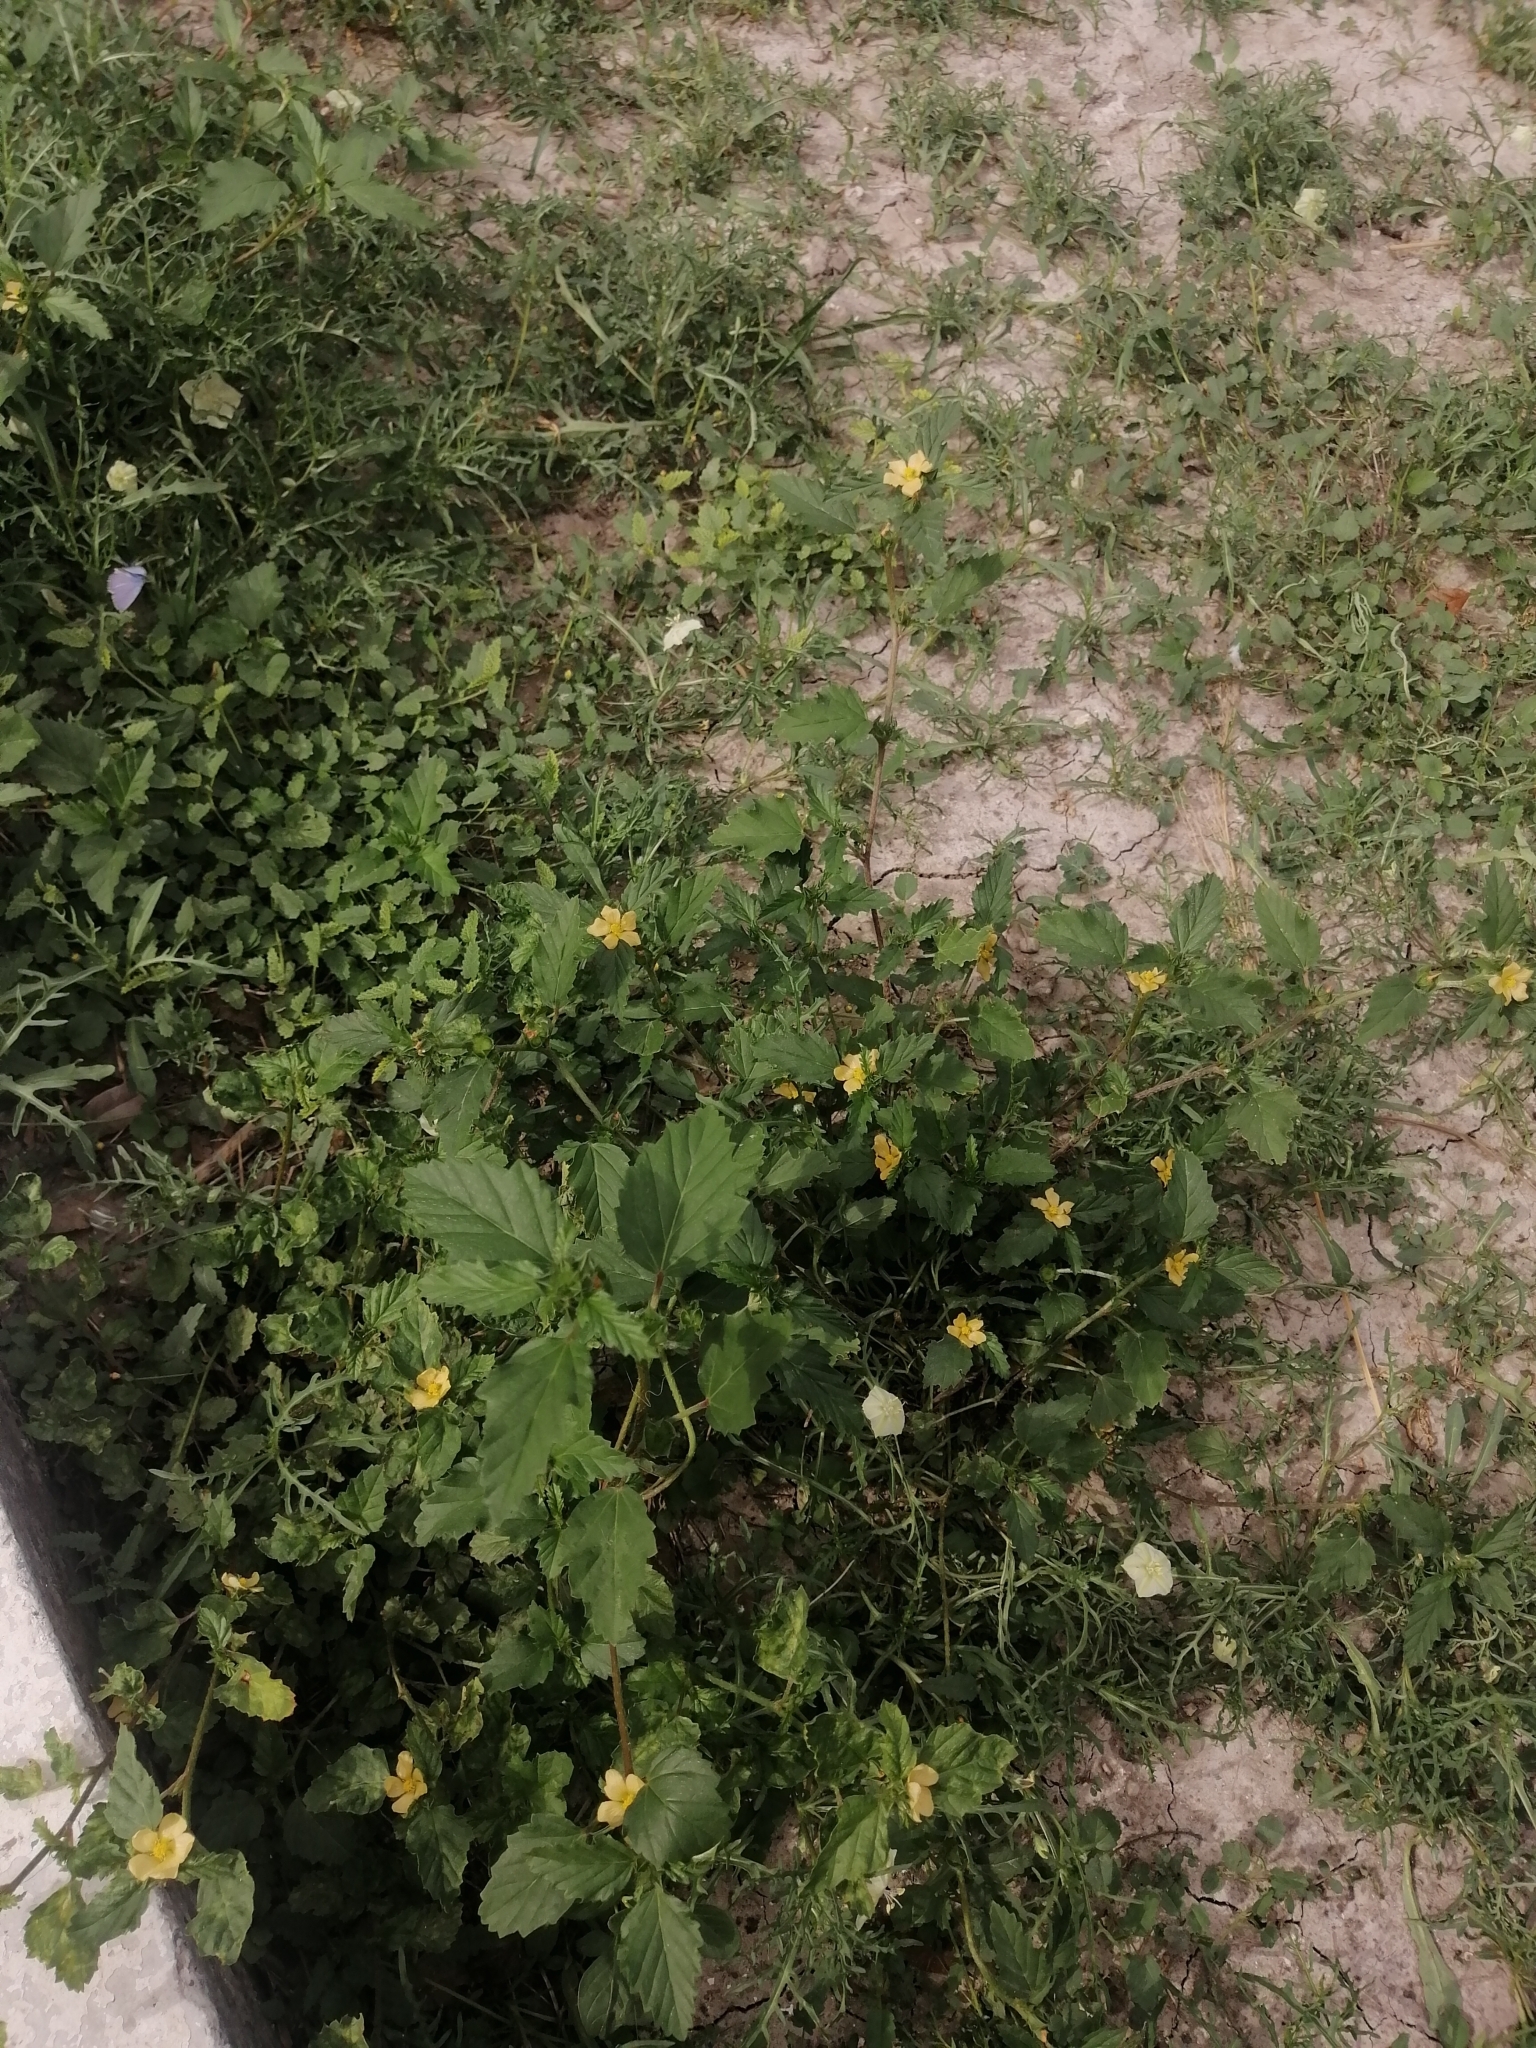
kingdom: Plantae
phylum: Tracheophyta
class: Magnoliopsida
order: Malvales
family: Malvaceae
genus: Malvastrum
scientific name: Malvastrum coromandelianum
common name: Threelobe false mallow
